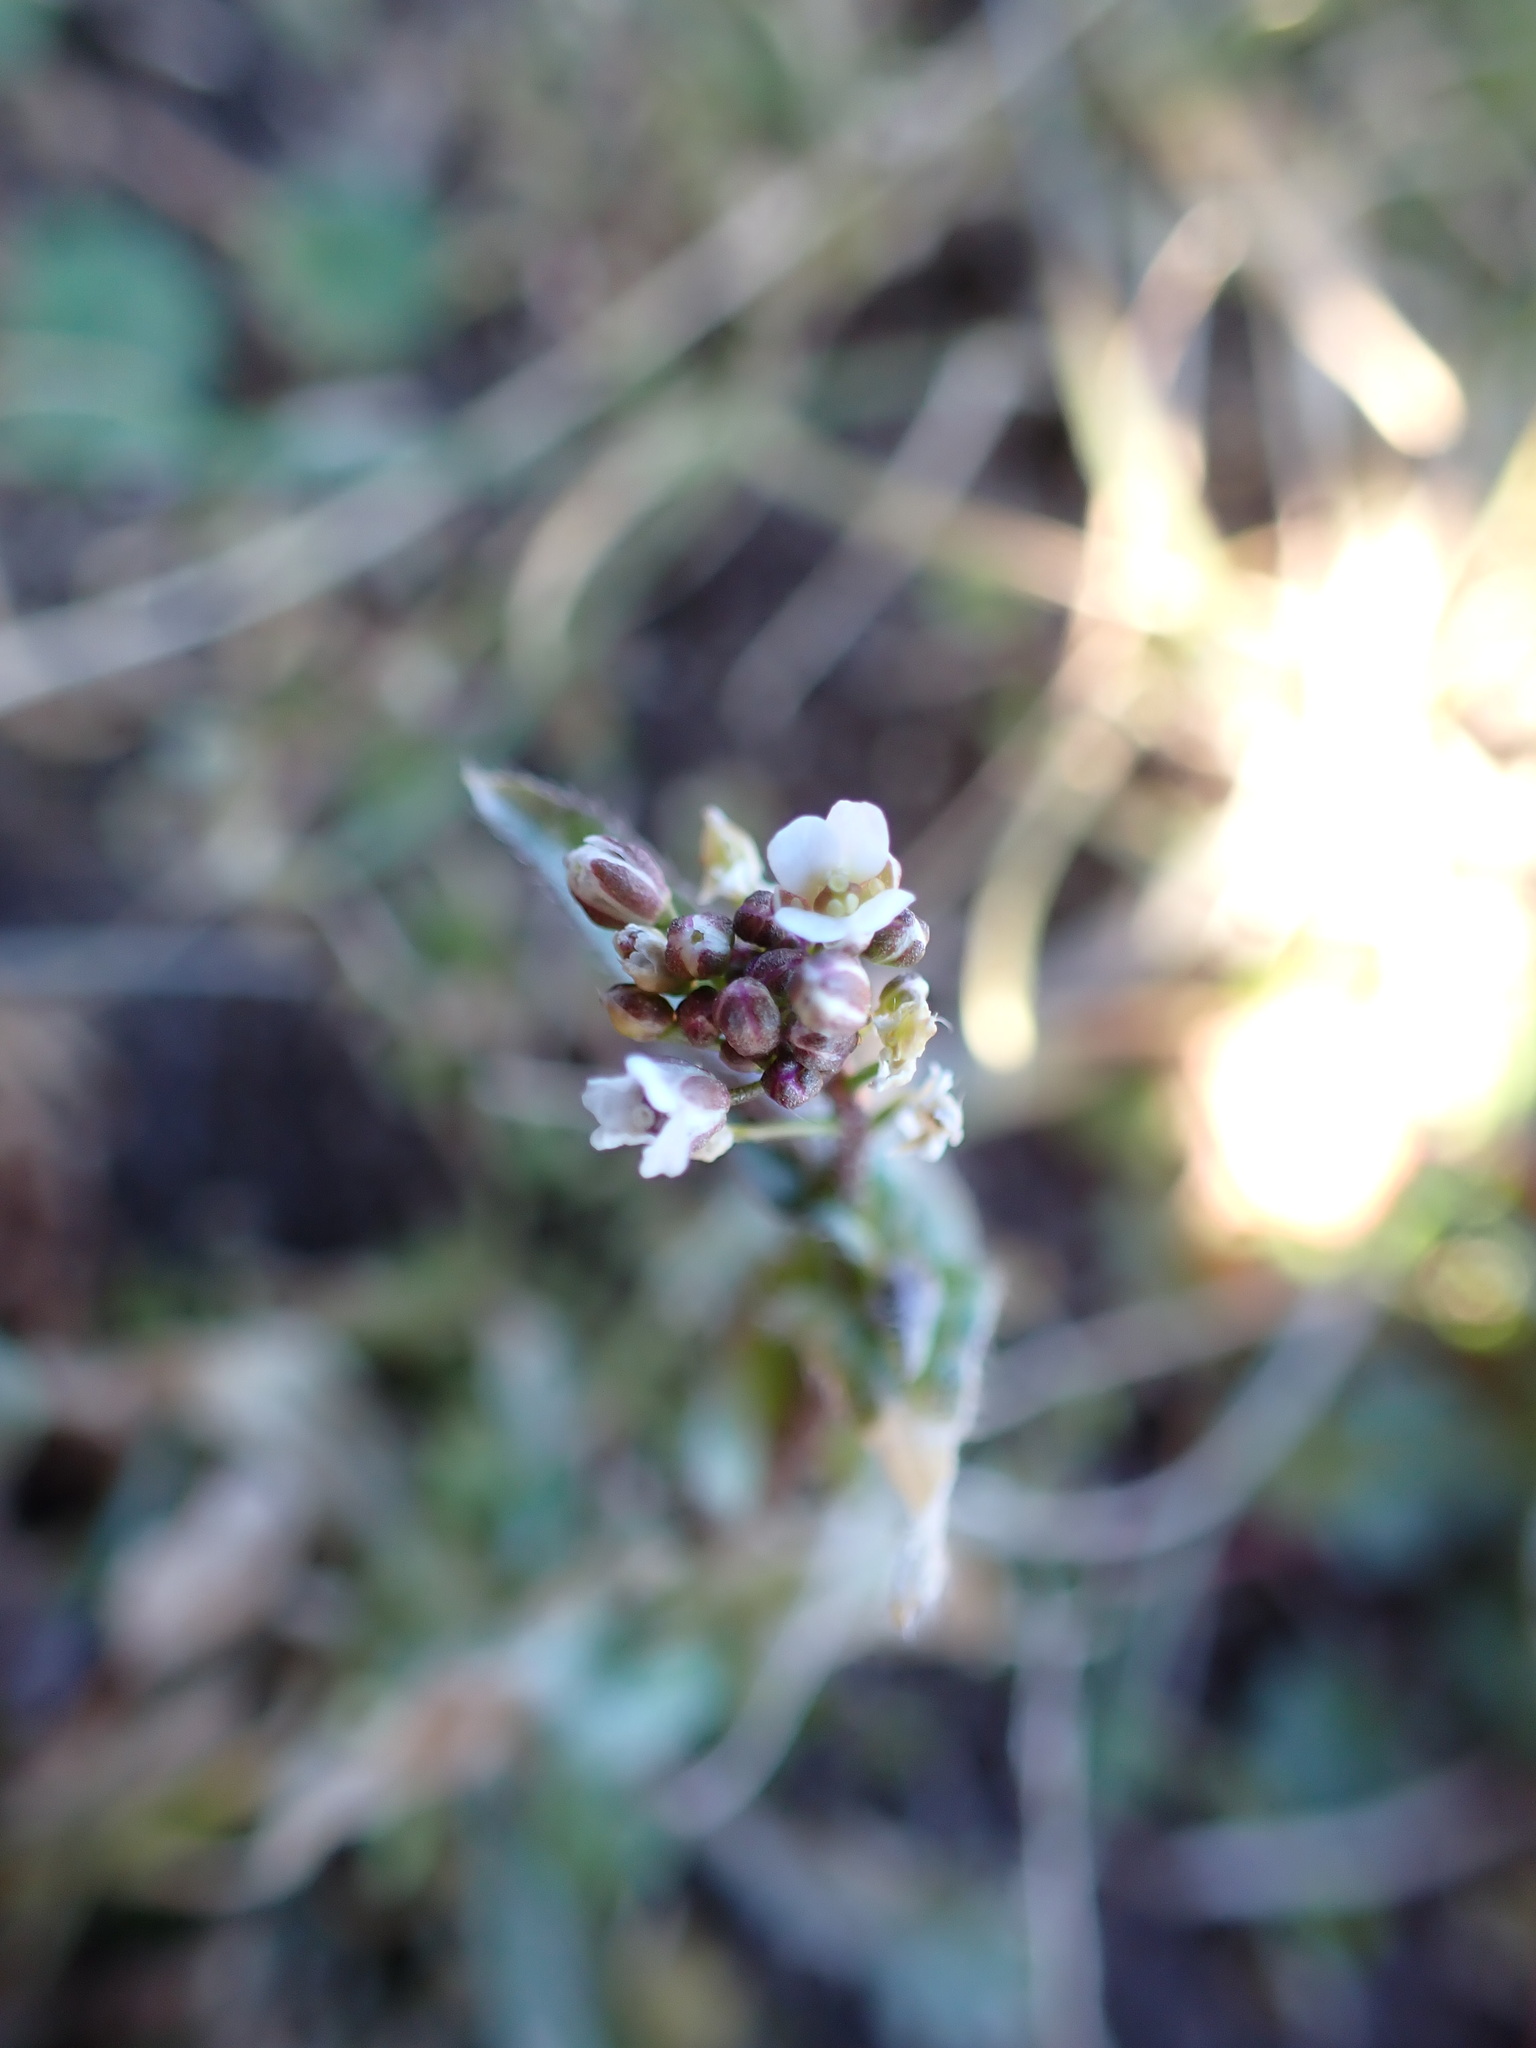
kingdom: Plantae
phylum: Tracheophyta
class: Magnoliopsida
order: Brassicales
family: Brassicaceae
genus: Capsella
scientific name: Capsella bursa-pastoris
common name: Shepherd's purse
